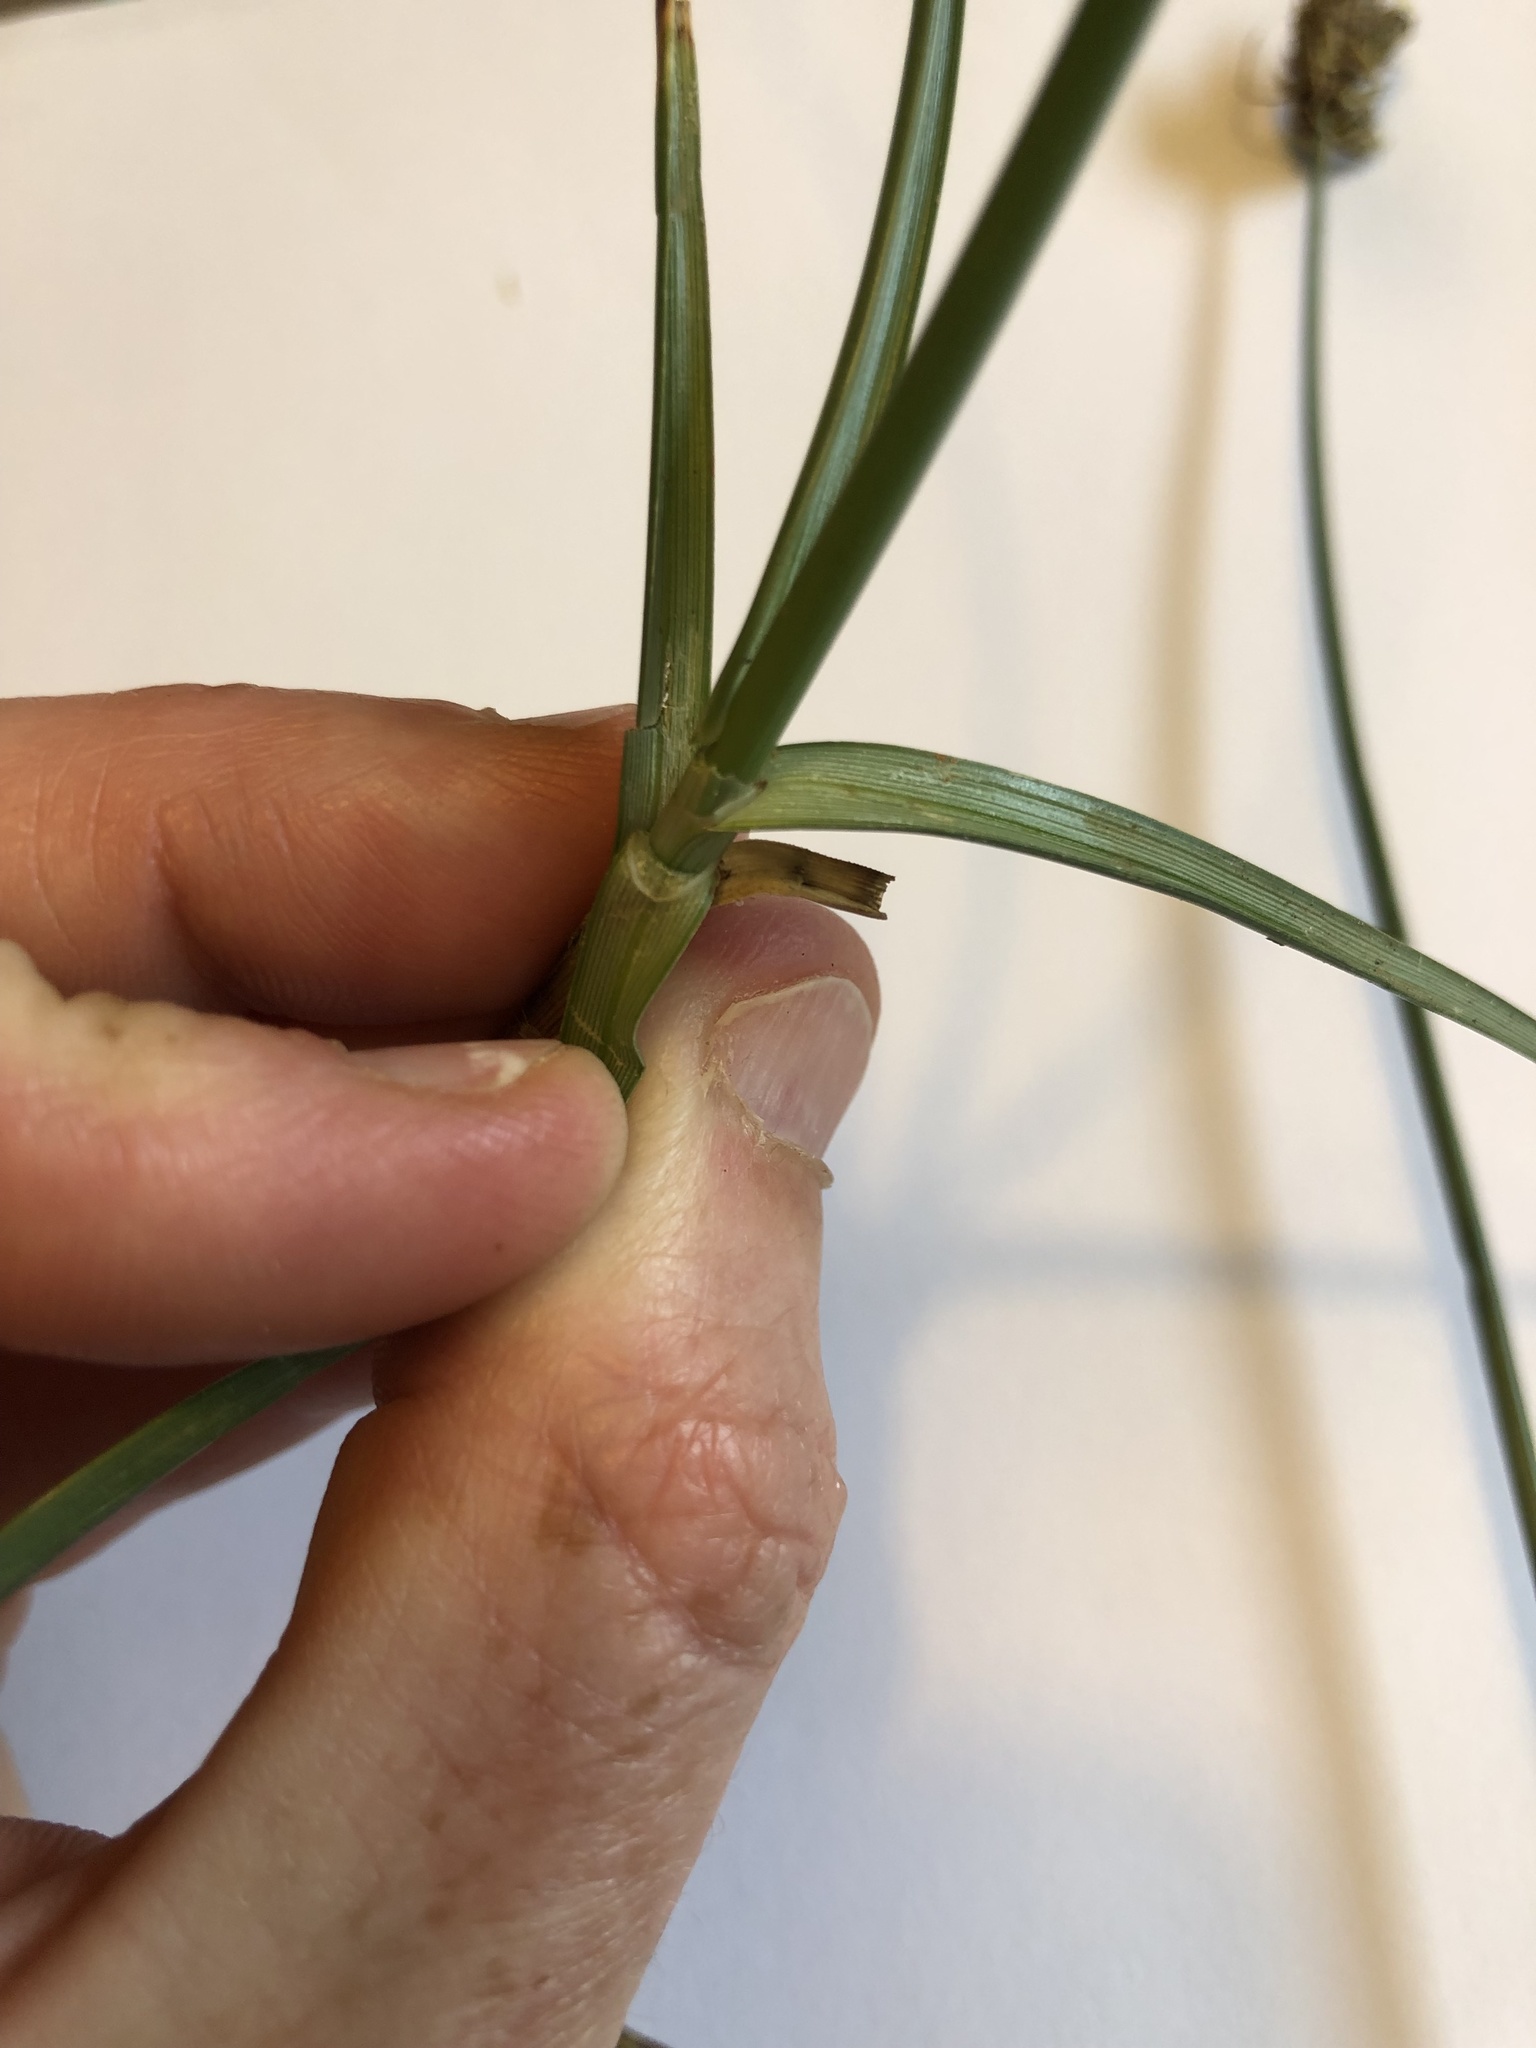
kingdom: Plantae
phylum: Tracheophyta
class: Liliopsida
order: Poales
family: Cyperaceae
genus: Carex
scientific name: Carex divisa
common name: Divided sedge
